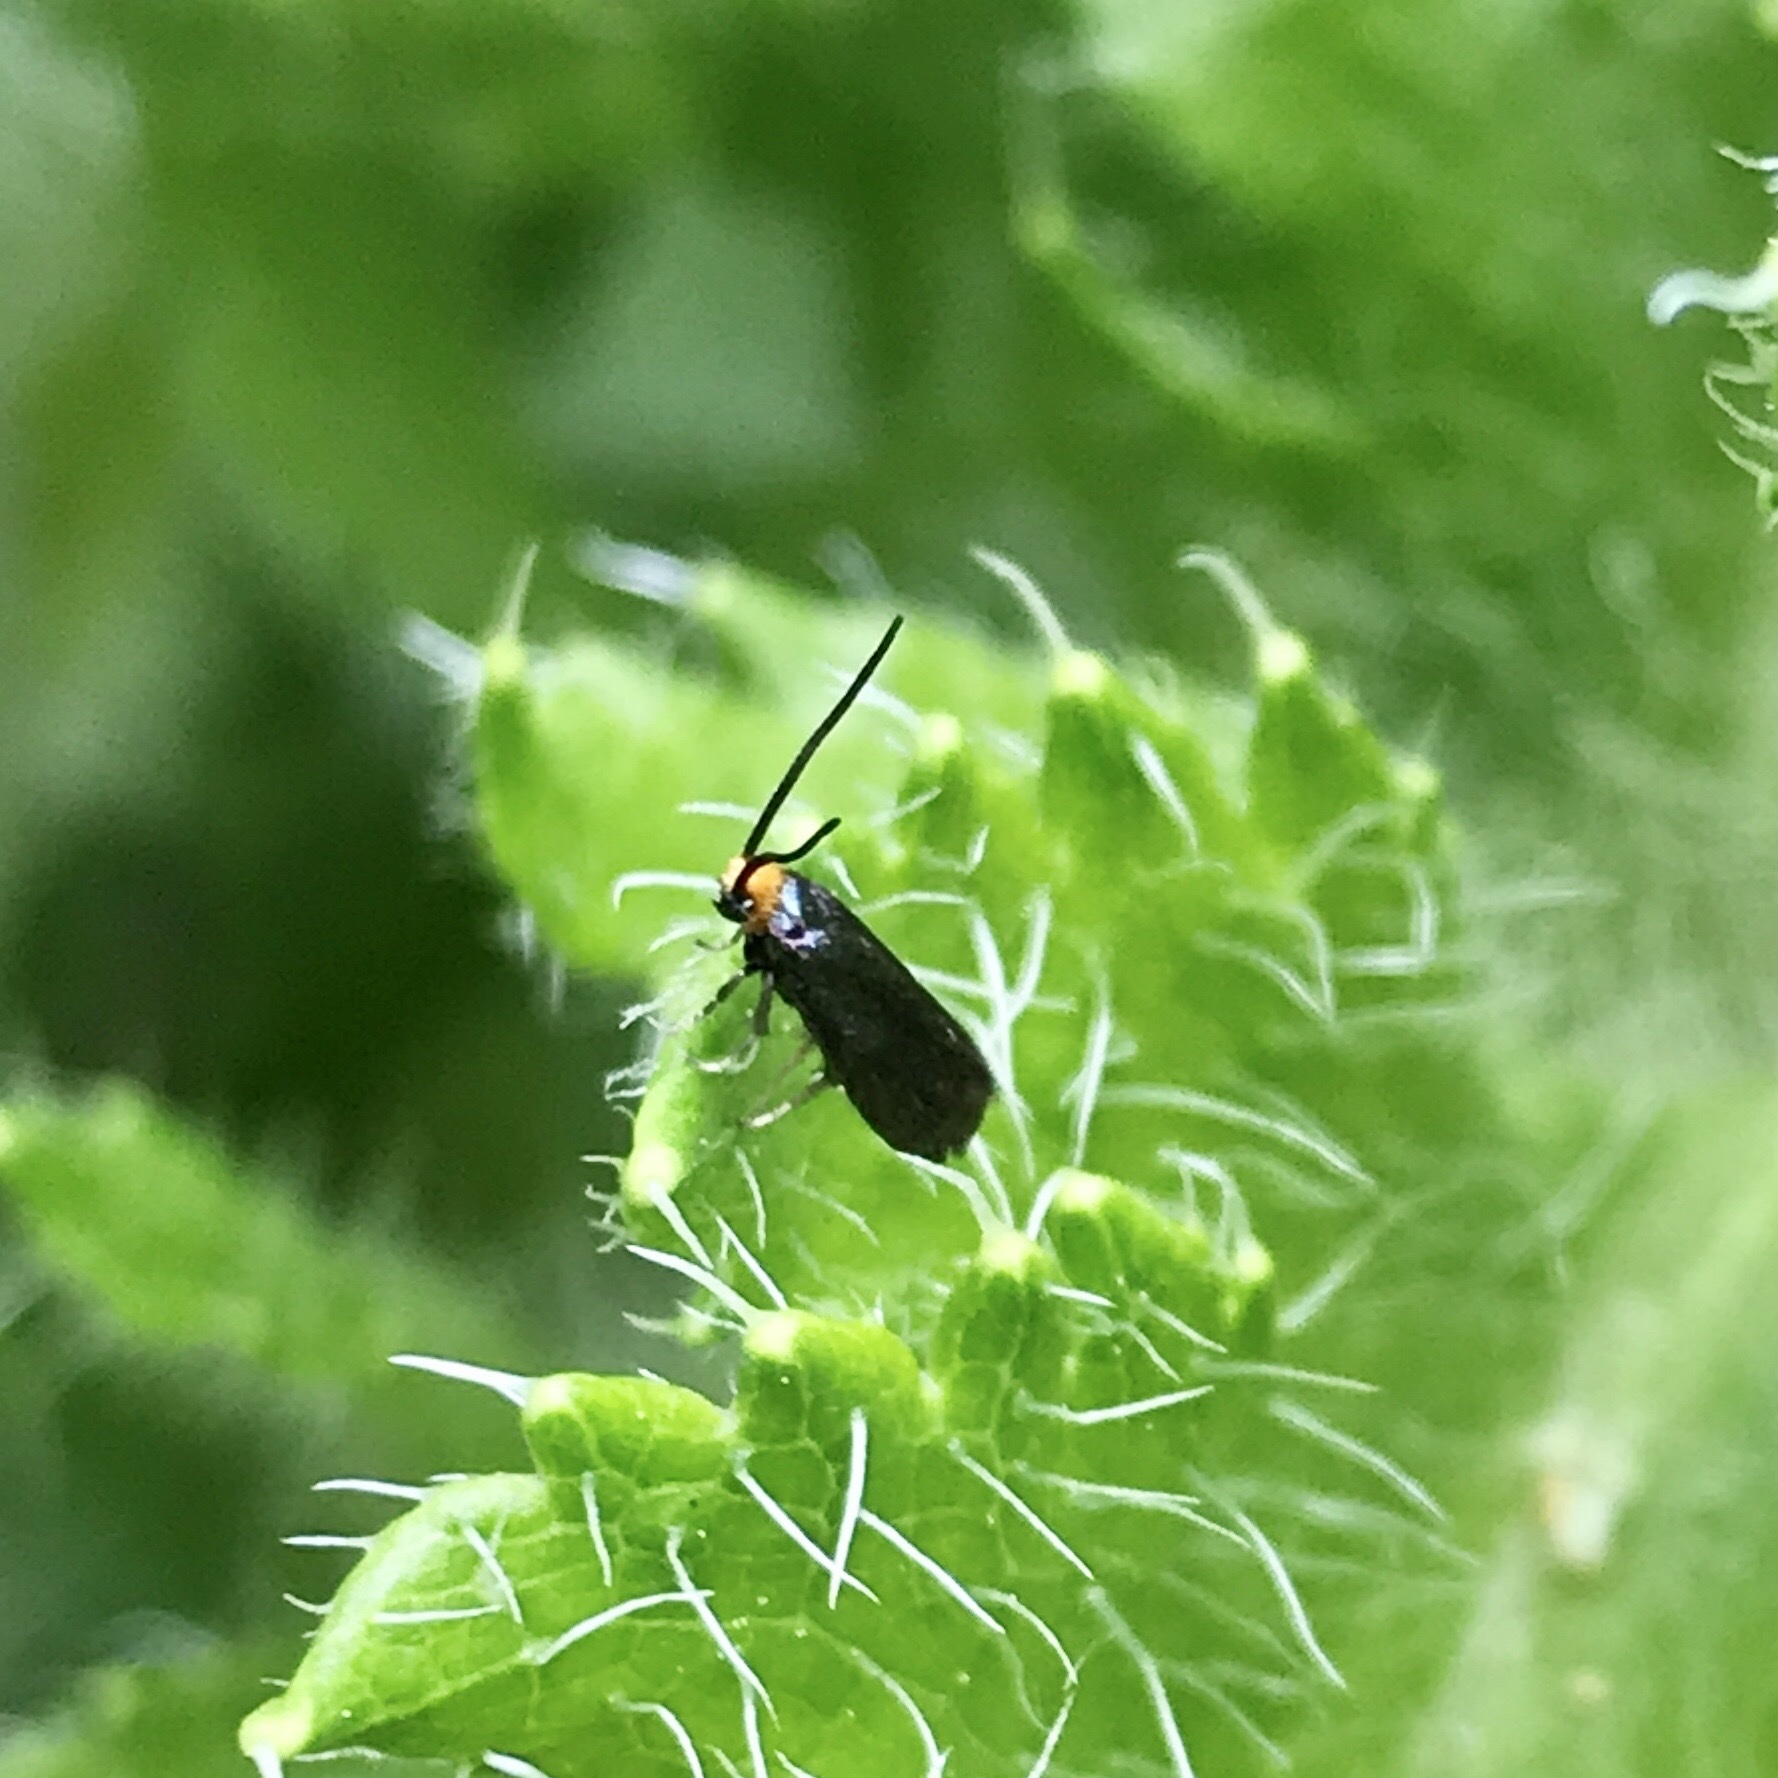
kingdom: Animalia
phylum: Arthropoda
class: Insecta
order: Lepidoptera
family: Incurvariidae
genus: Paraclemensia
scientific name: Paraclemensia acerifoliella
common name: Maple leafcutter
